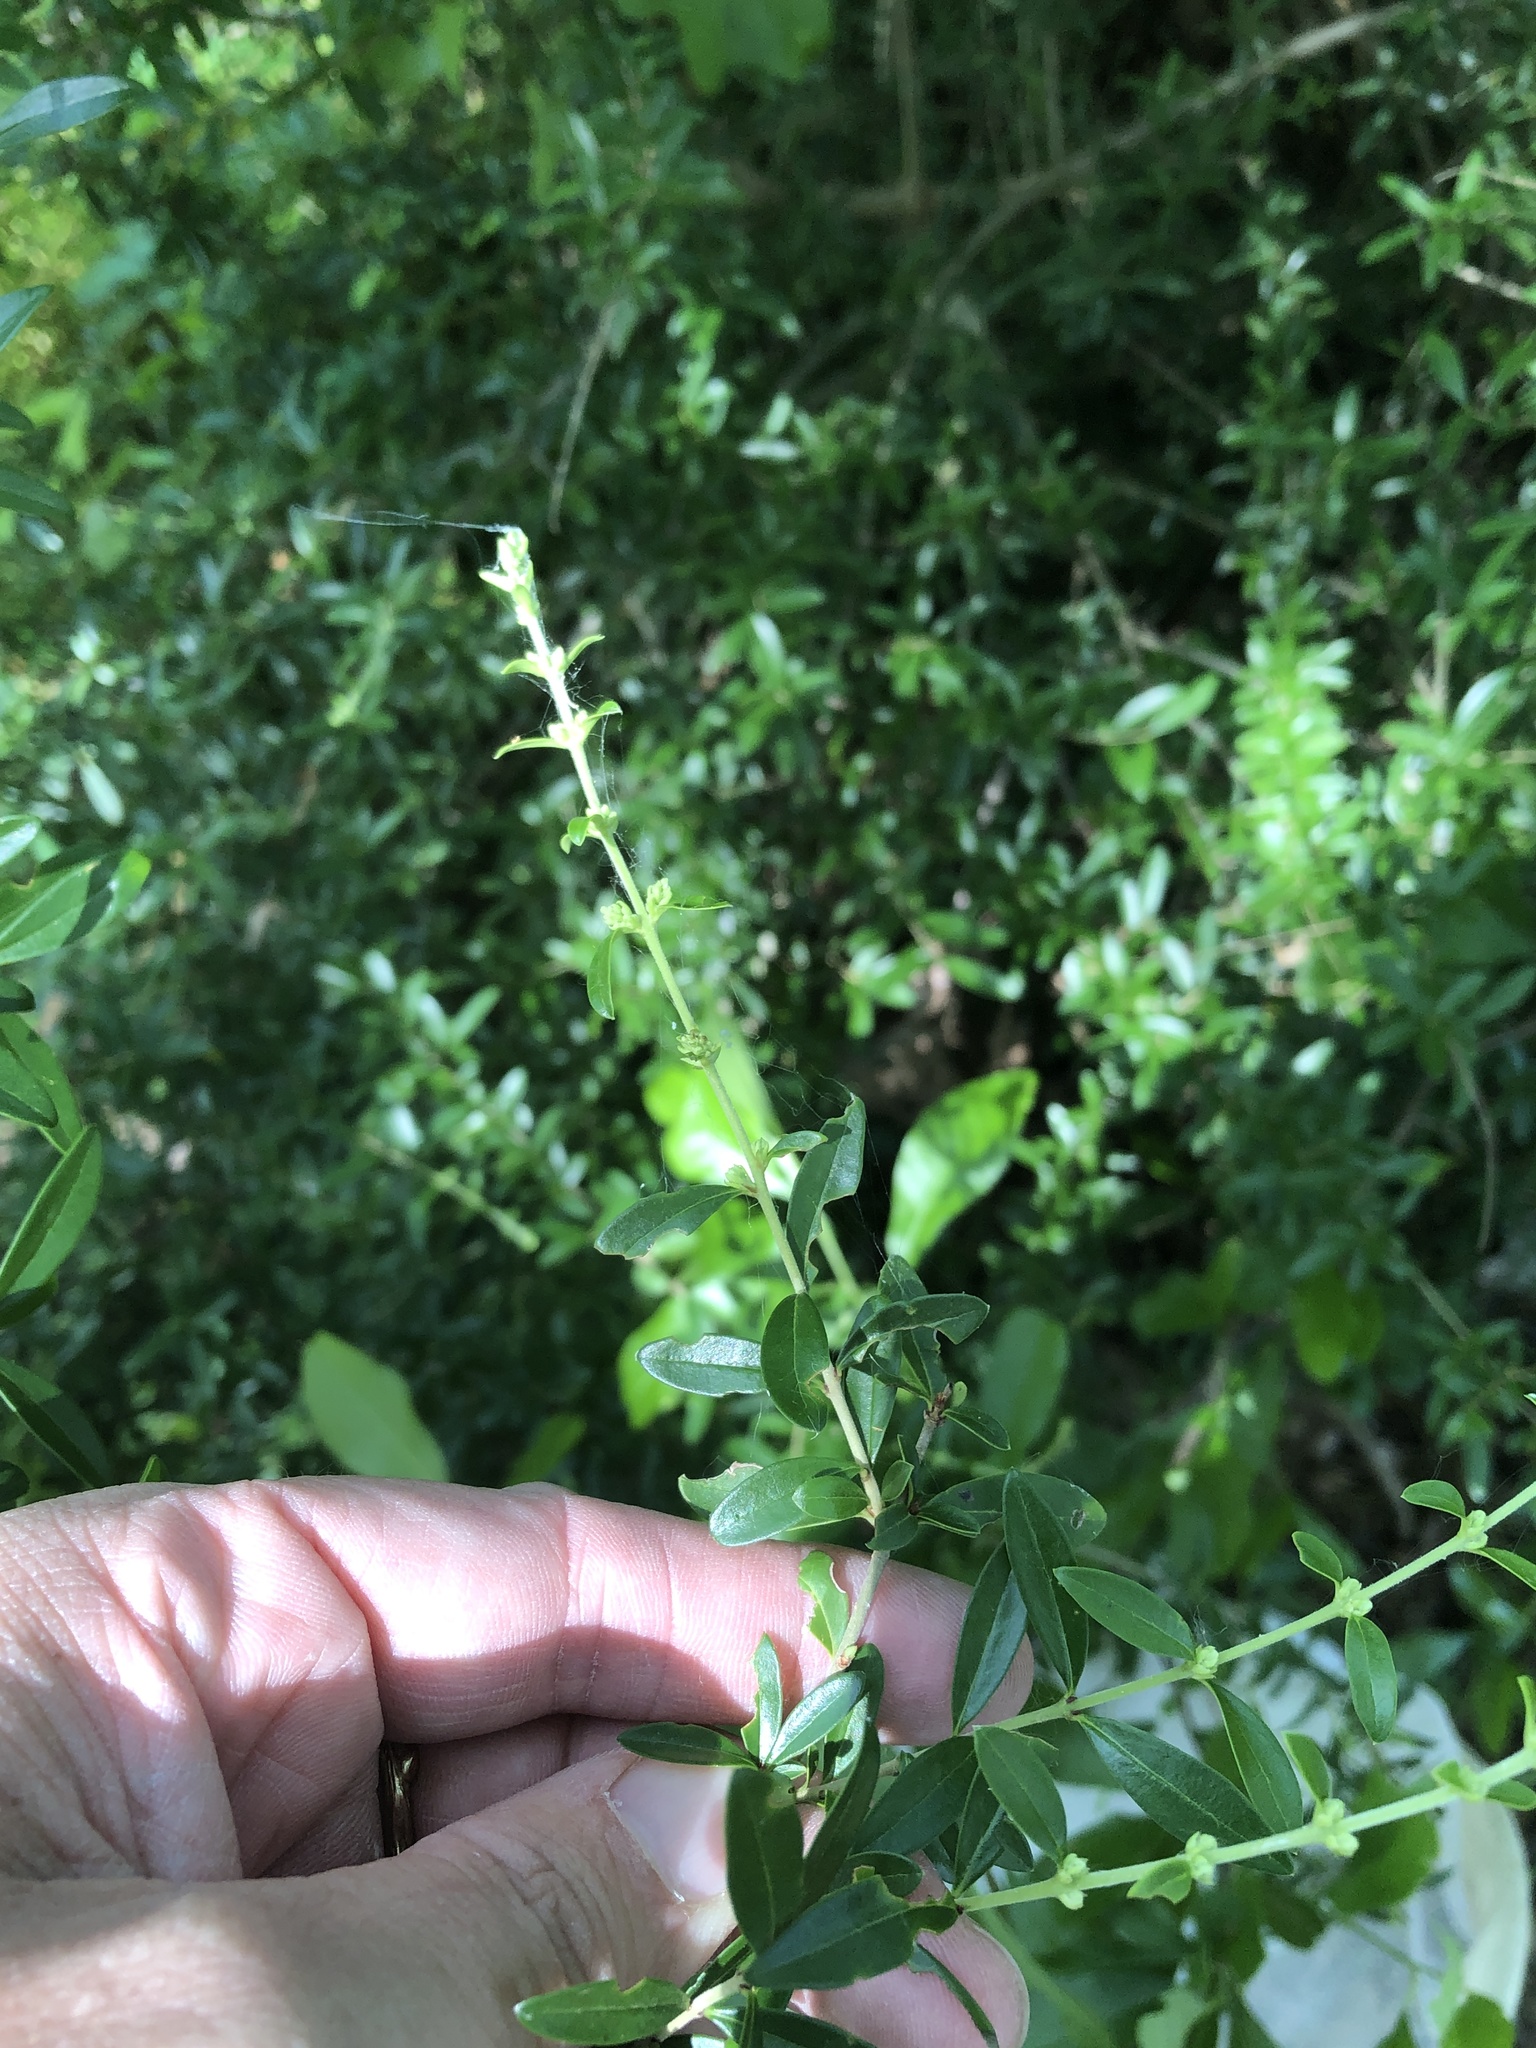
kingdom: Plantae
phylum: Tracheophyta
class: Magnoliopsida
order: Lamiales
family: Oleaceae
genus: Ligustrum
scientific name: Ligustrum quihoui
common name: Waxyleaf privet
